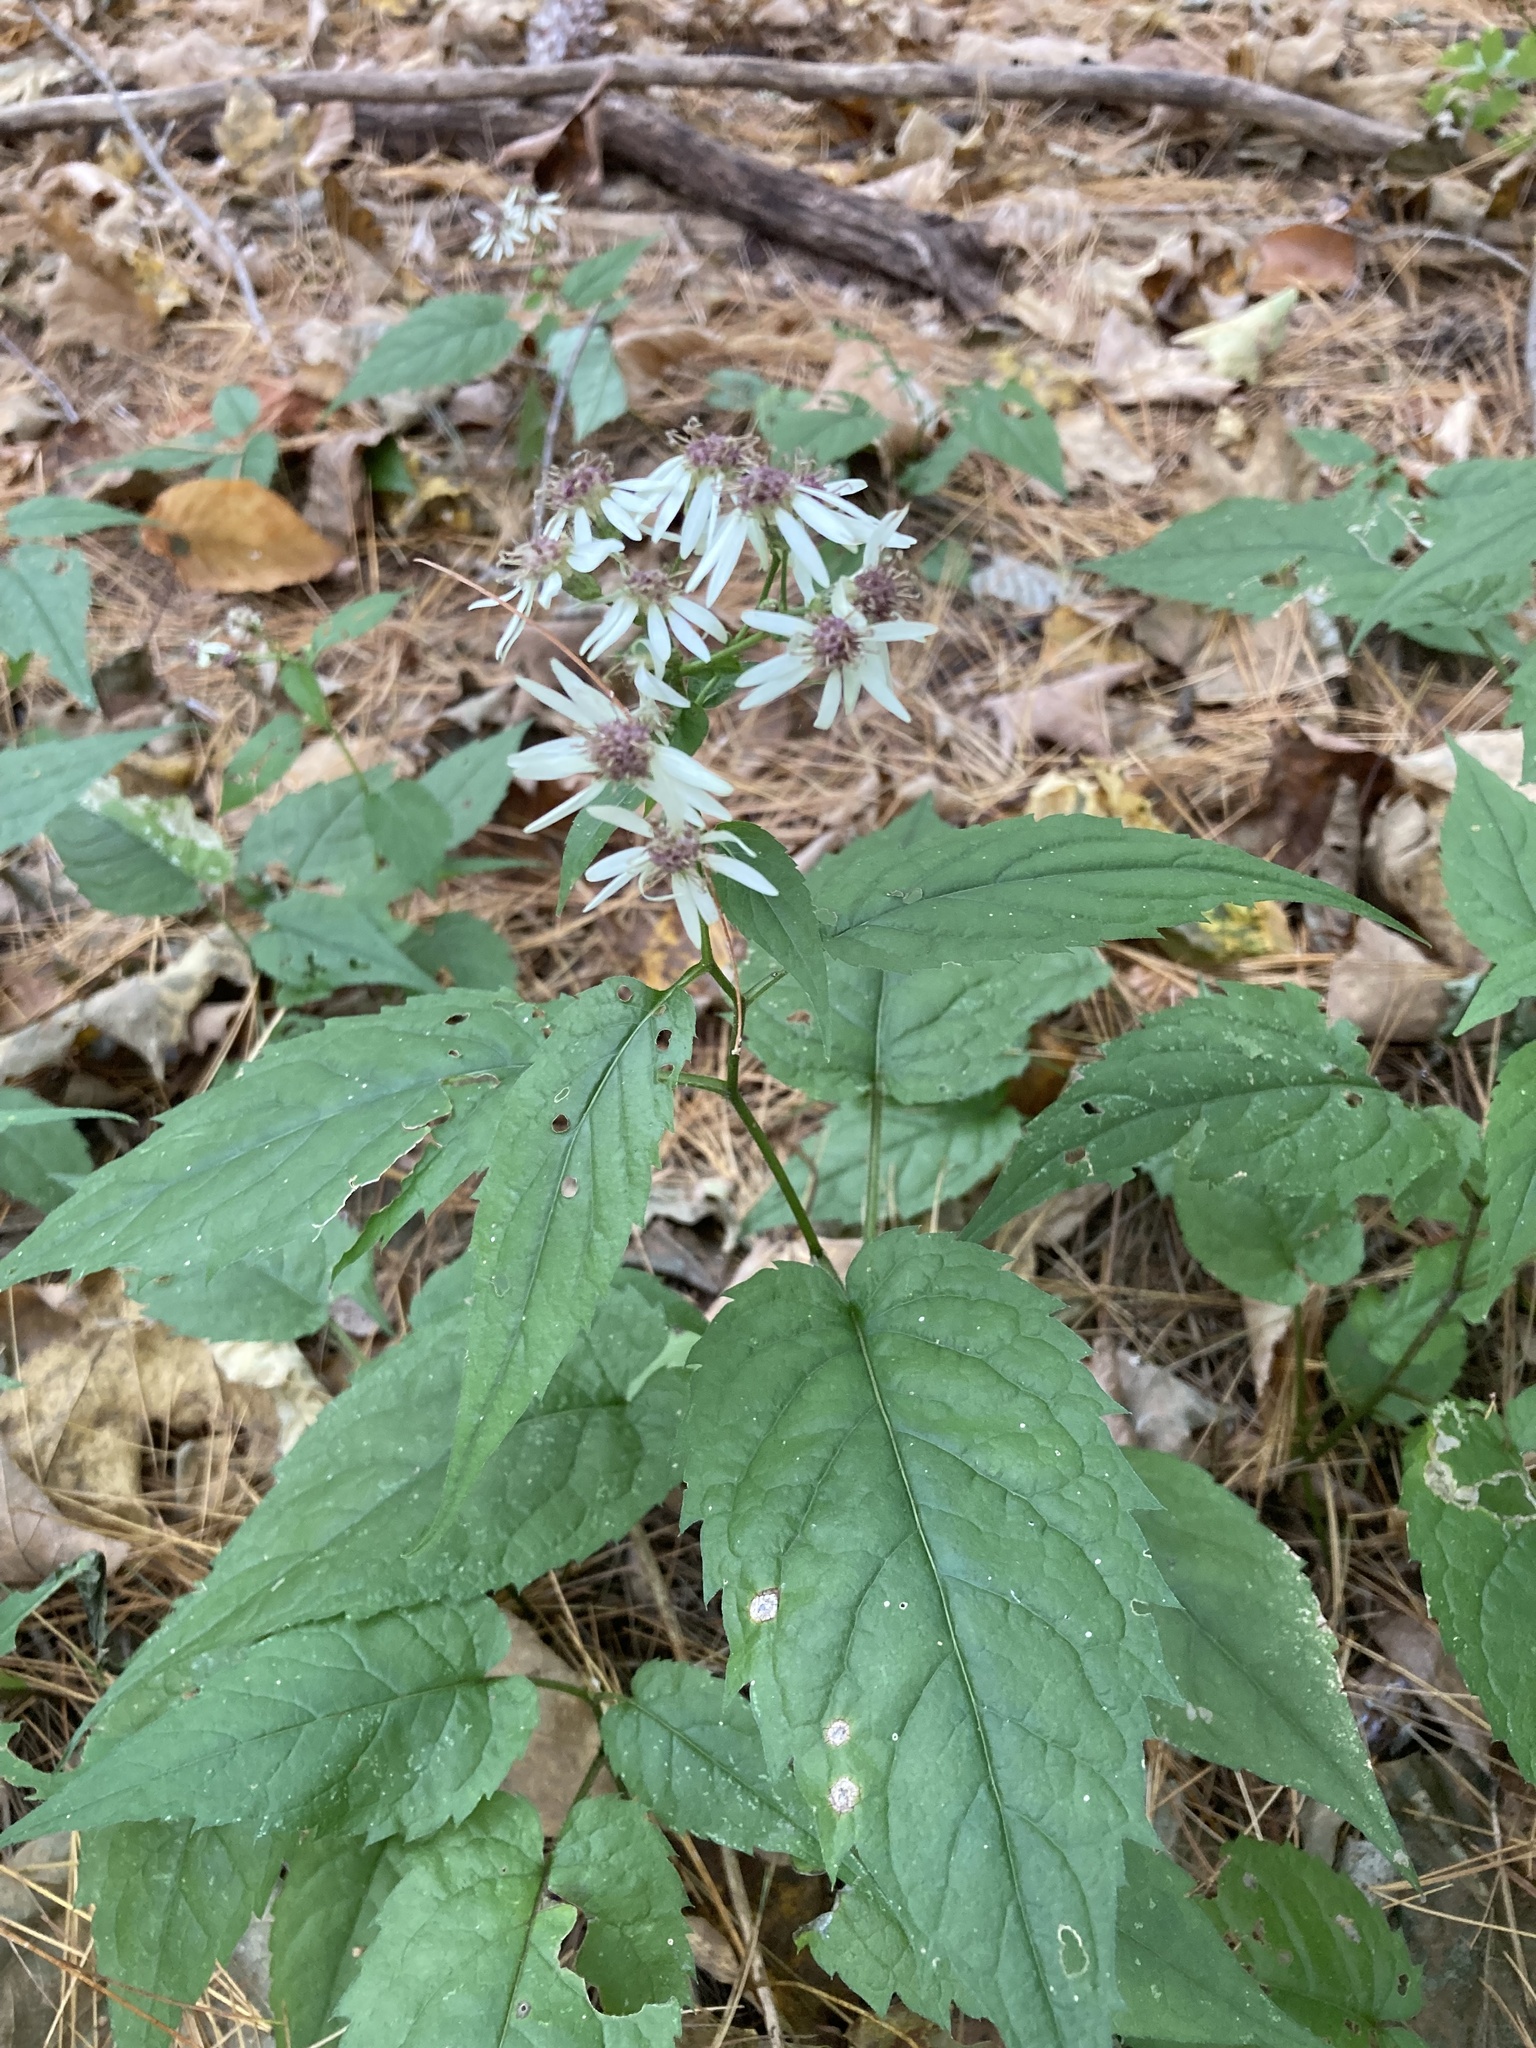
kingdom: Plantae
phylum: Tracheophyta
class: Magnoliopsida
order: Asterales
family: Asteraceae
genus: Eurybia
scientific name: Eurybia divaricata
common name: White wood aster
